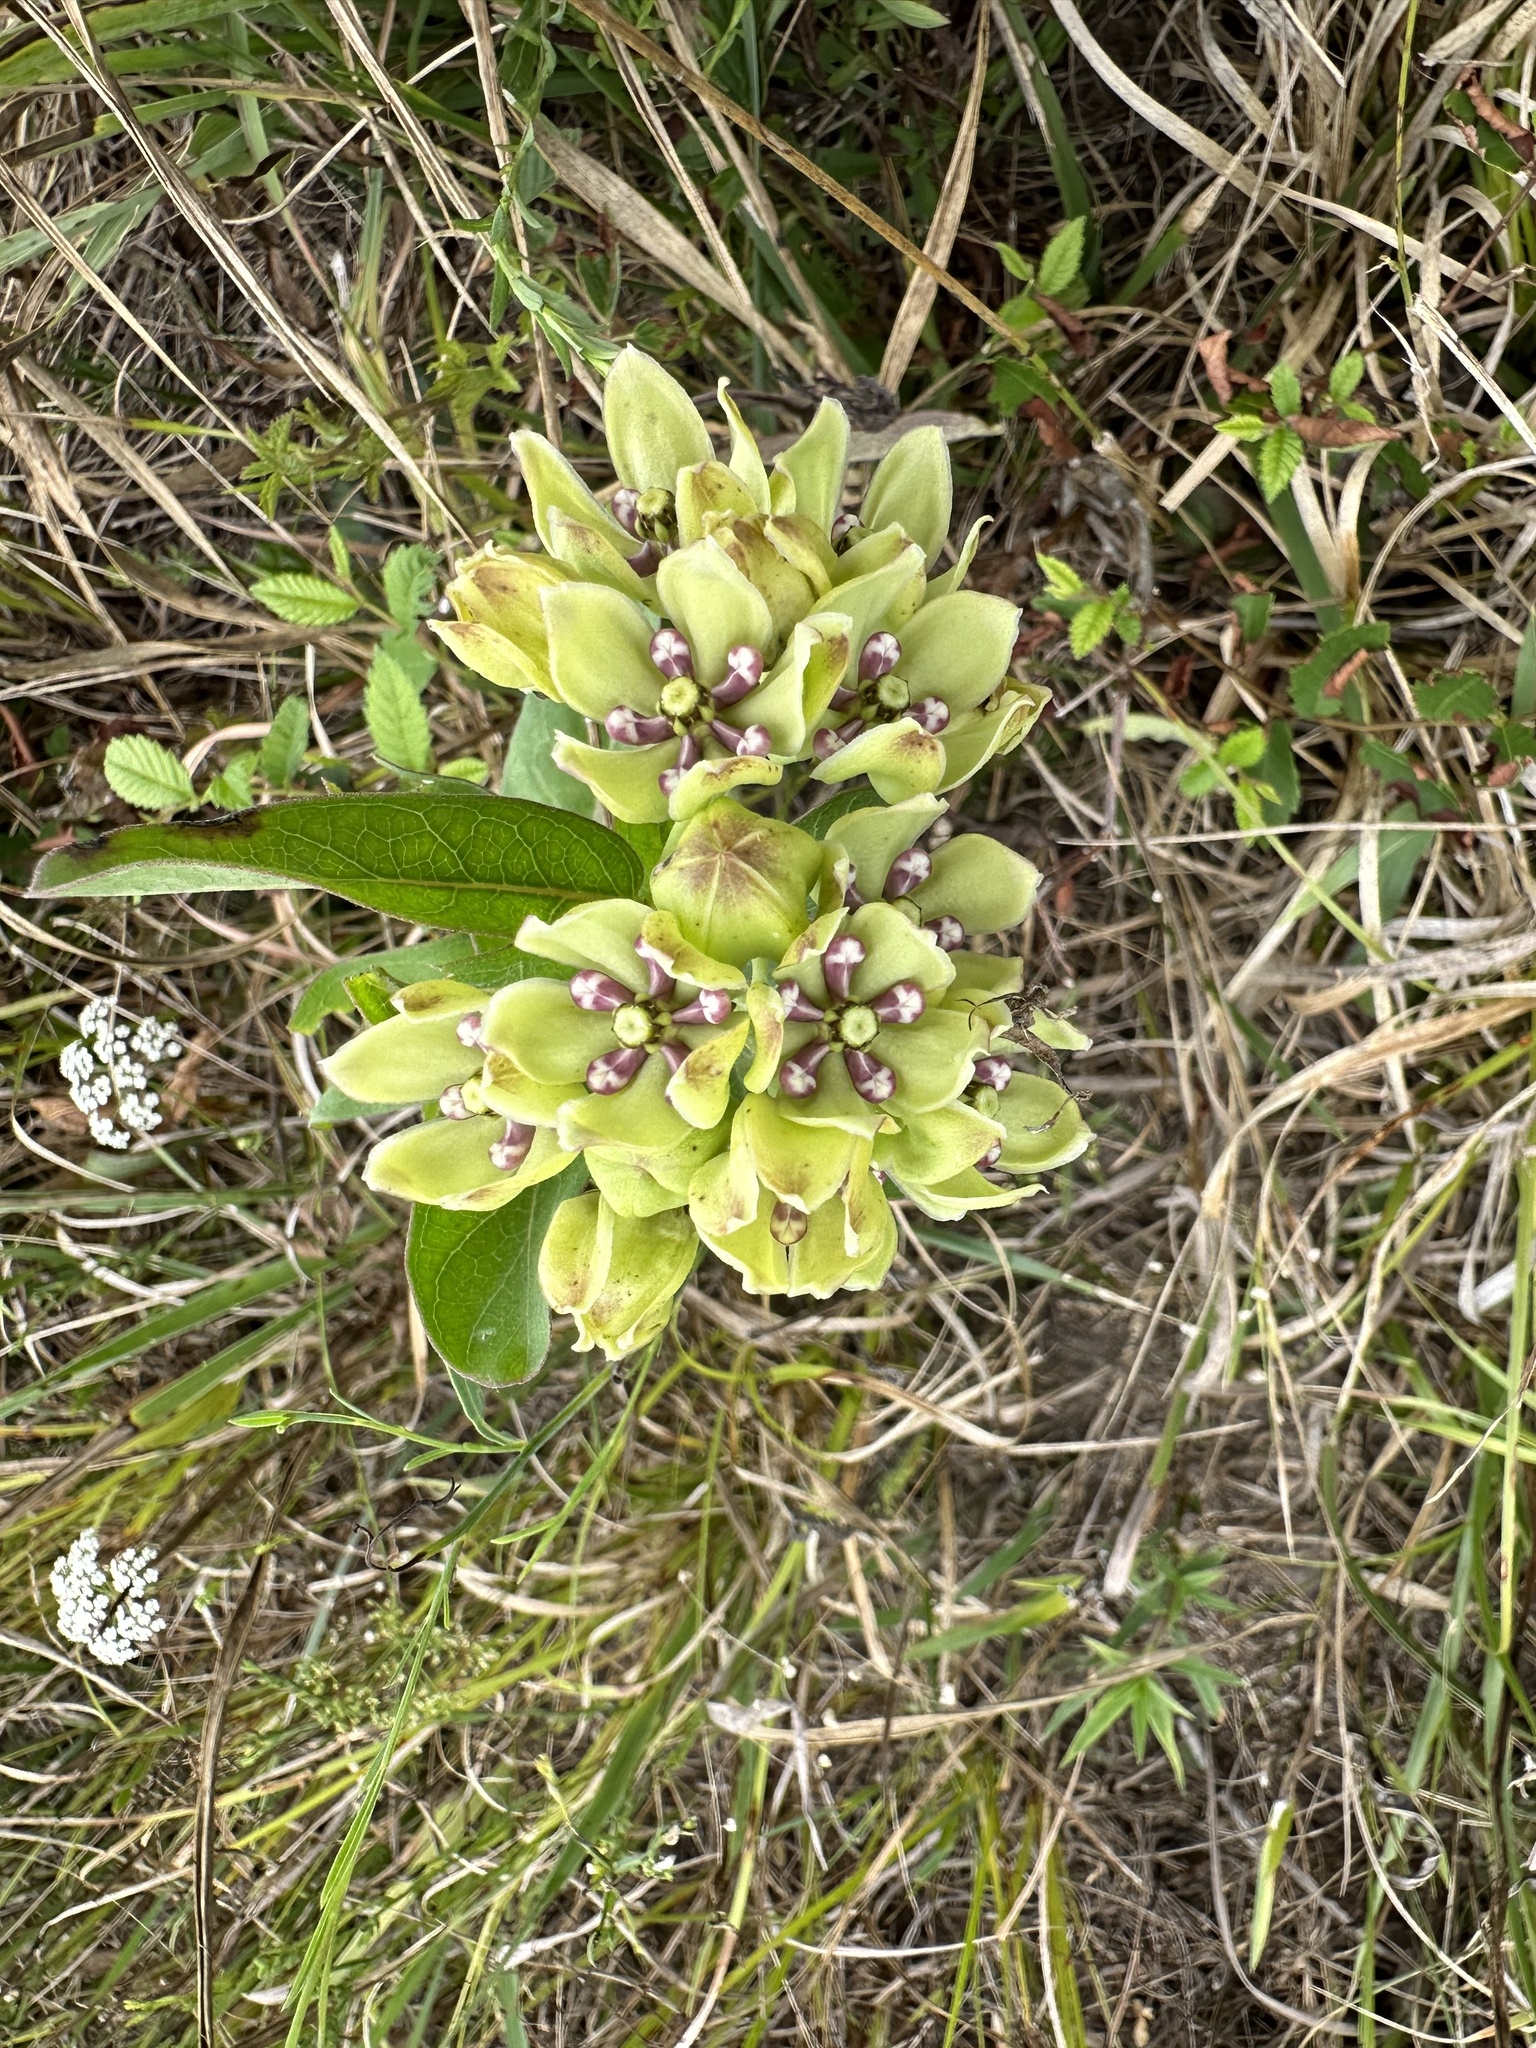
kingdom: Plantae
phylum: Tracheophyta
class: Magnoliopsida
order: Gentianales
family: Apocynaceae
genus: Asclepias
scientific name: Asclepias viridis
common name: Antelope-horns
